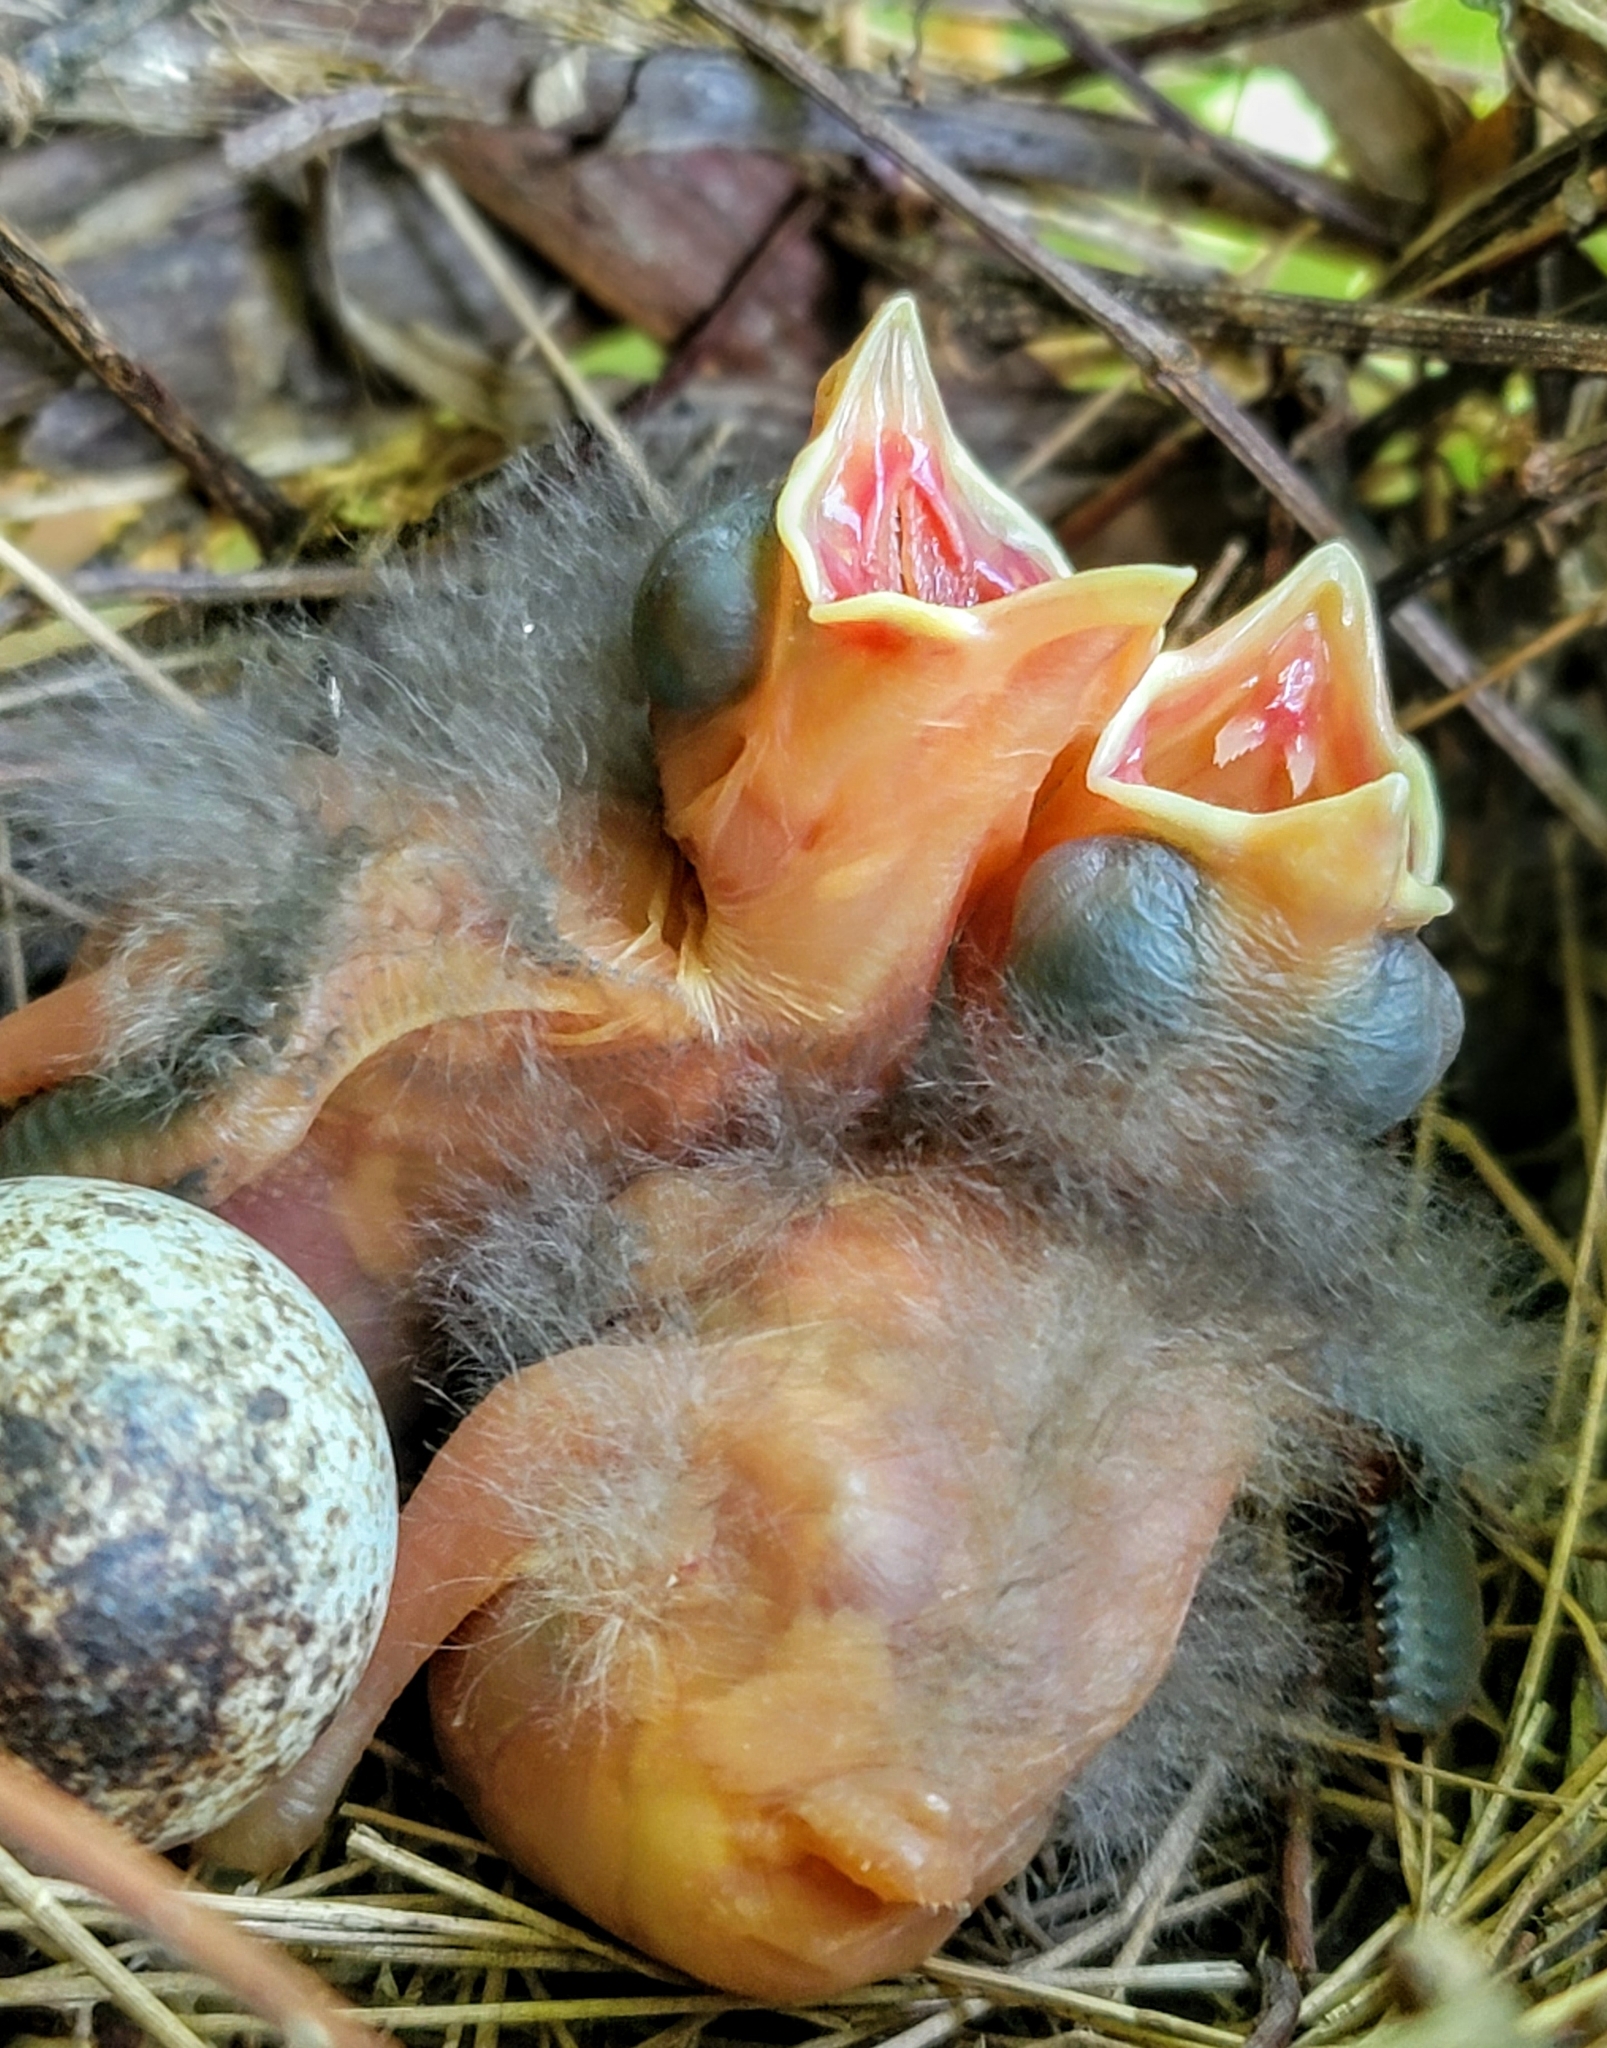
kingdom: Animalia
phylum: Chordata
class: Aves
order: Passeriformes
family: Cardinalidae
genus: Cardinalis
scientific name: Cardinalis cardinalis
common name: Northern cardinal
